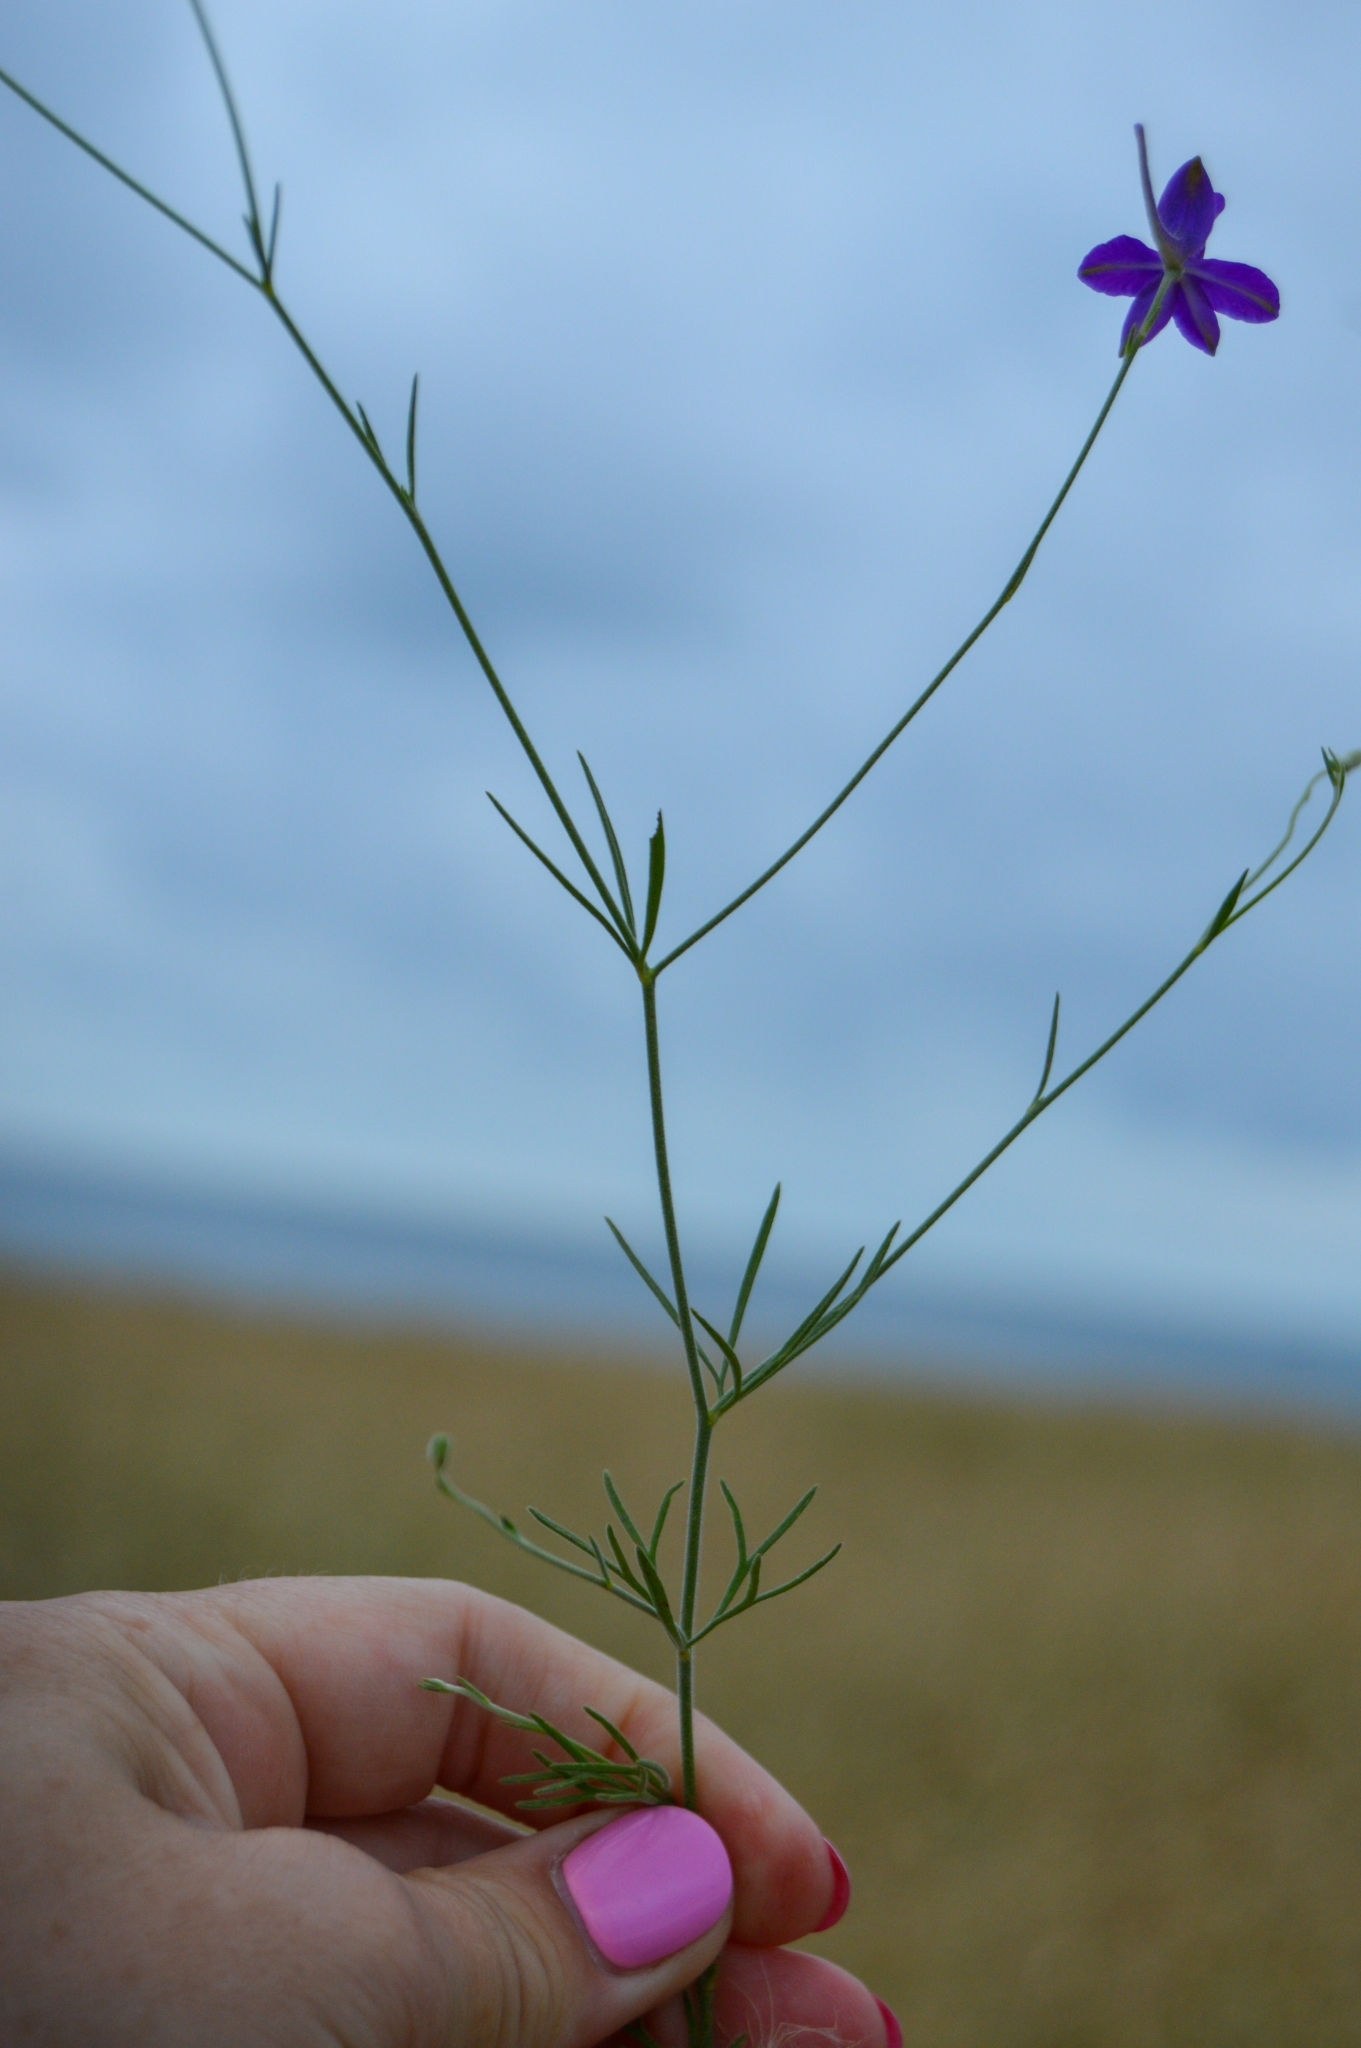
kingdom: Plantae
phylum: Tracheophyta
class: Magnoliopsida
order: Ranunculales
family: Ranunculaceae
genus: Delphinium
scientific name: Delphinium consolida
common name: Branching larkspur
